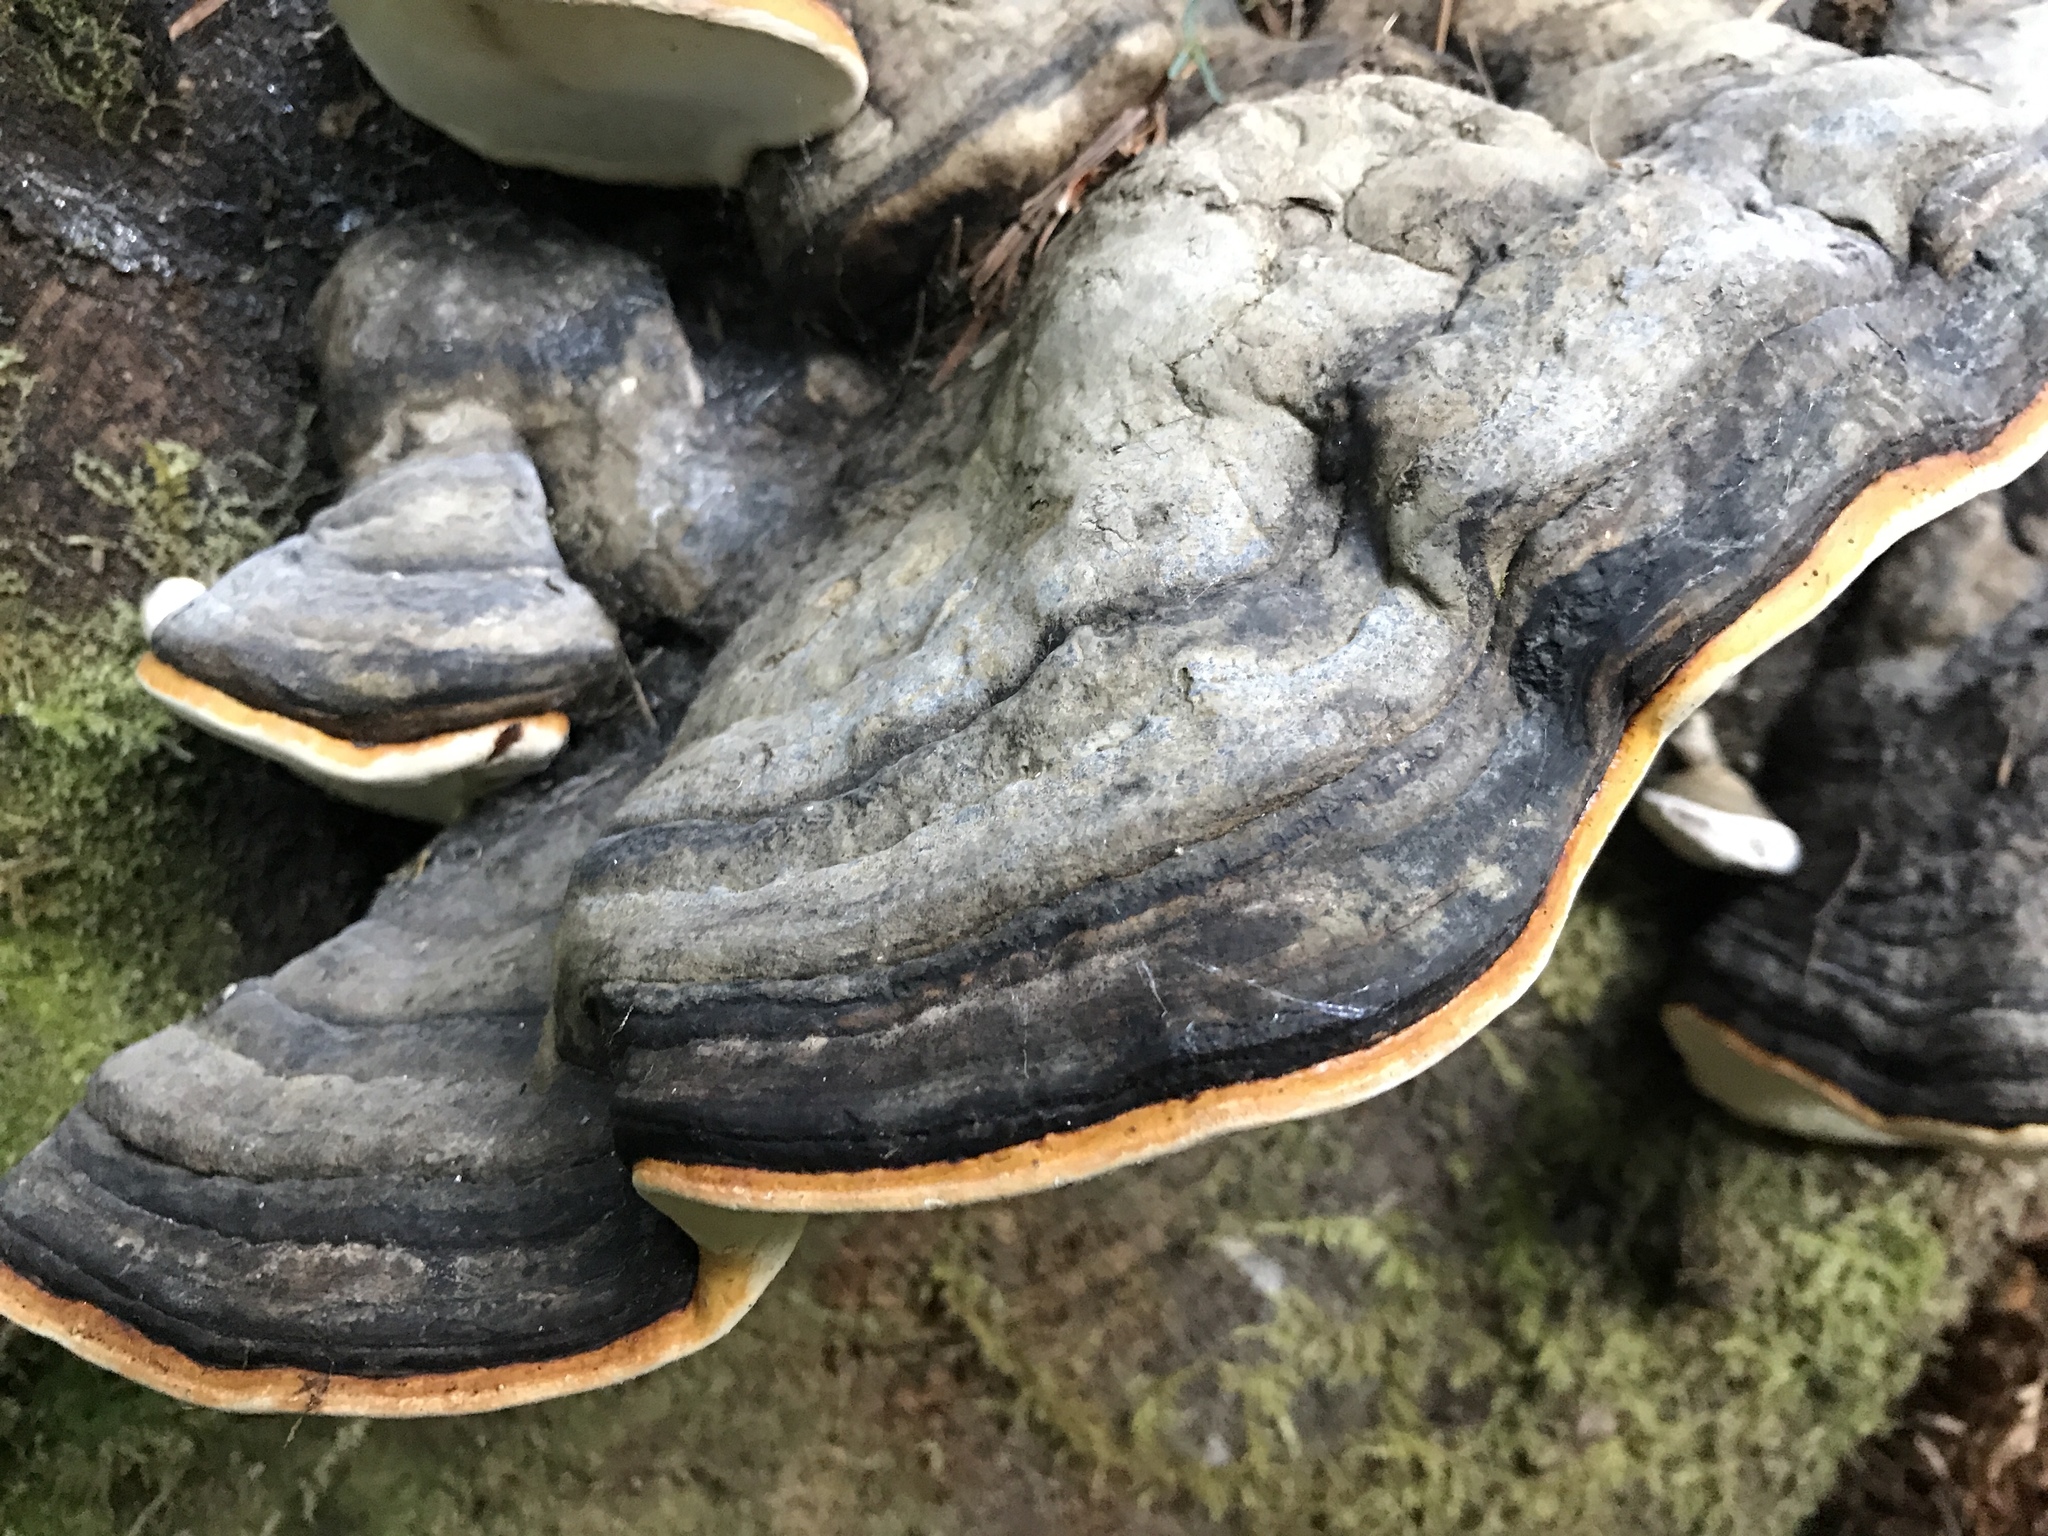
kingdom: Fungi
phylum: Basidiomycota
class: Agaricomycetes
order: Polyporales
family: Fomitopsidaceae
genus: Fomitopsis
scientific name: Fomitopsis mounceae
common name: Northern red belt
